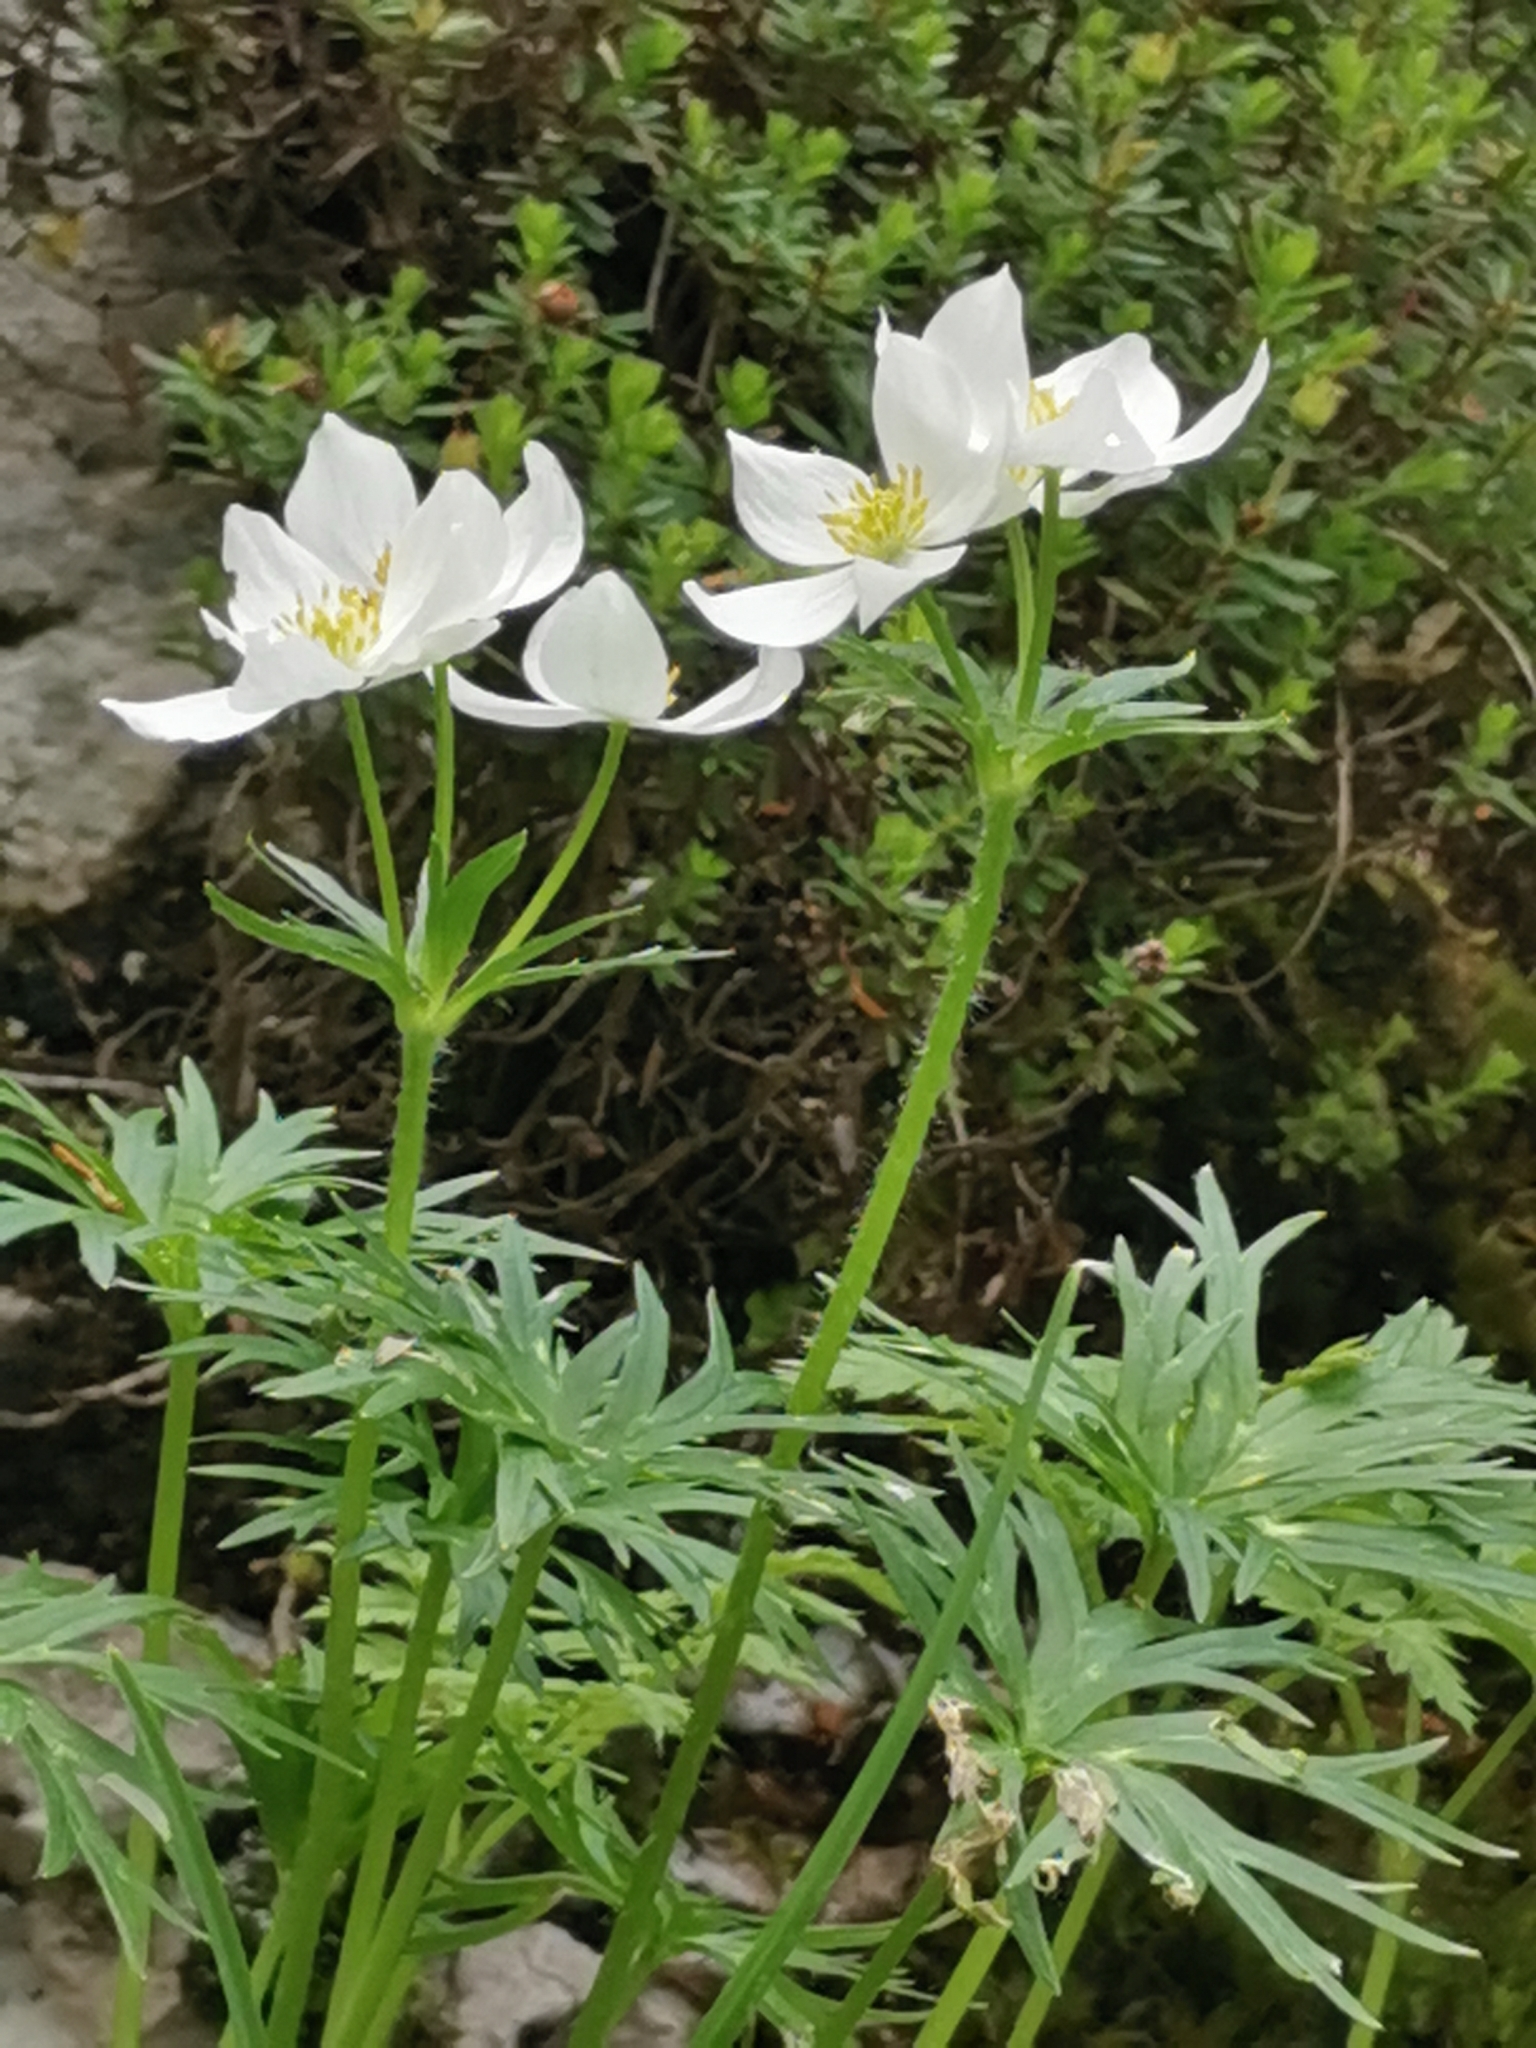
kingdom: Plantae
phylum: Tracheophyta
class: Magnoliopsida
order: Ranunculales
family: Ranunculaceae
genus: Anemonastrum
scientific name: Anemonastrum narcissiflorum
